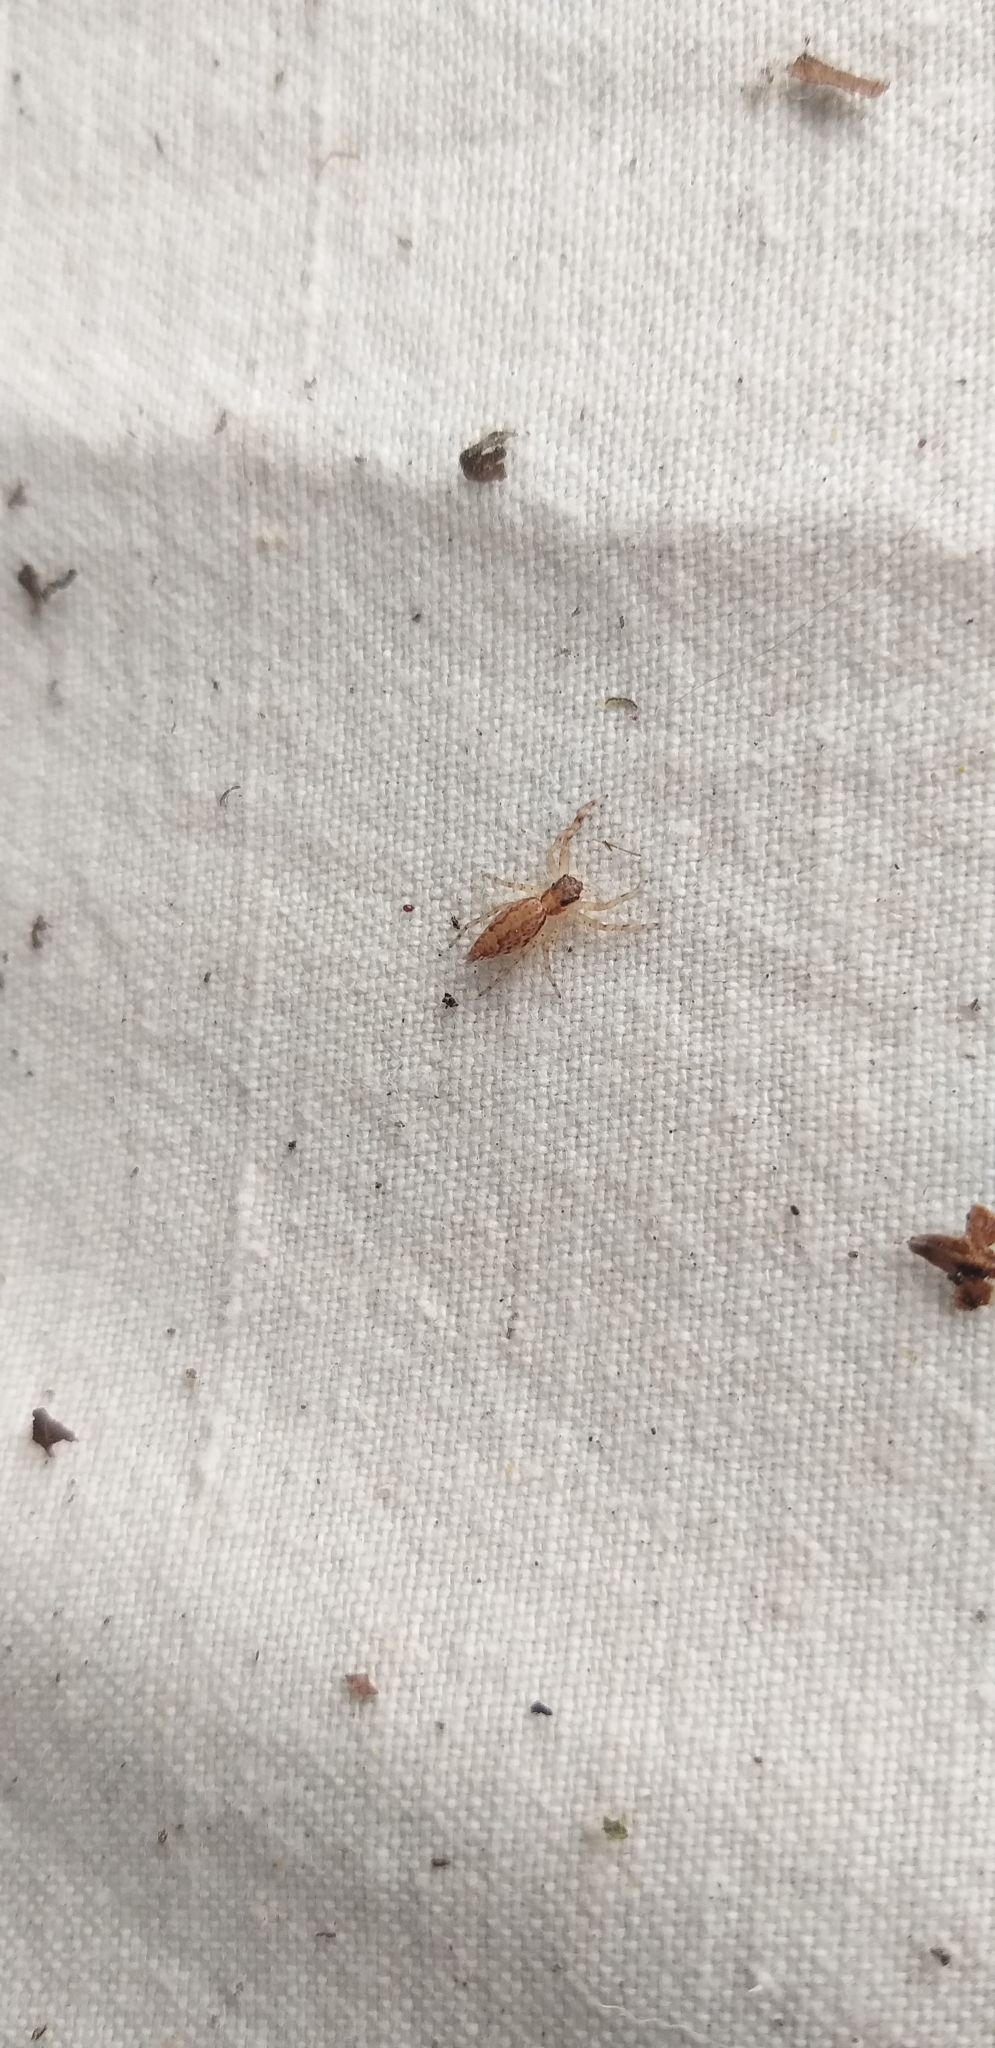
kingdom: Animalia
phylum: Arthropoda
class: Arachnida
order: Araneae
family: Salticidae
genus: Helpis
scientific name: Helpis minitabunda
